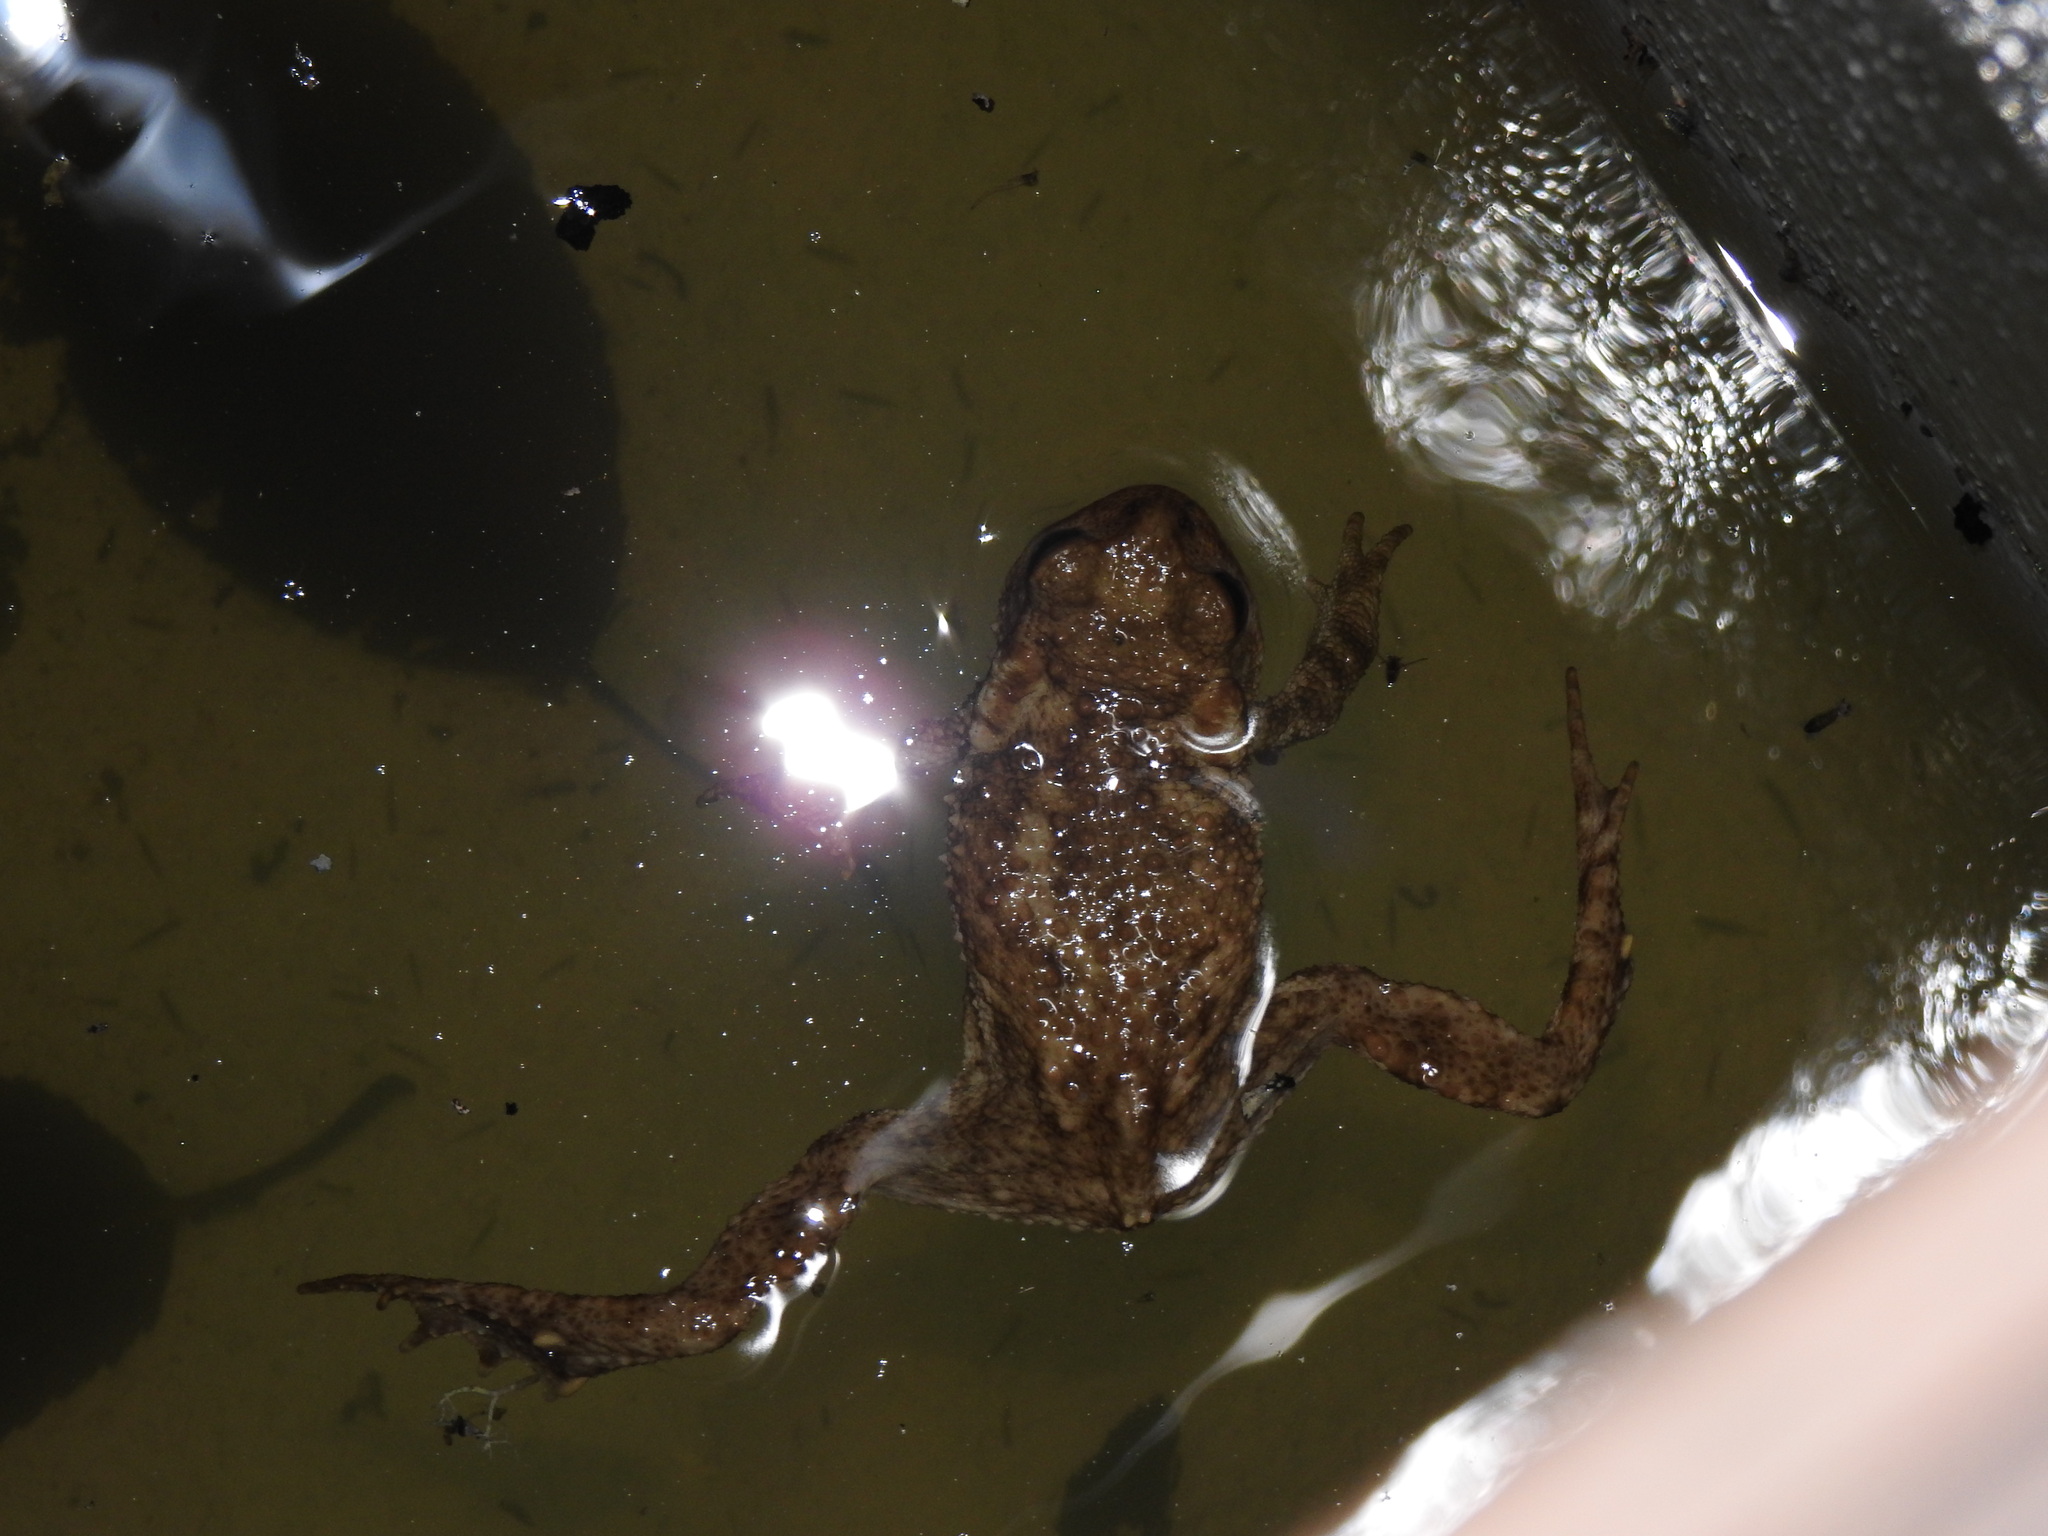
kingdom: Animalia
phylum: Chordata
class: Amphibia
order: Anura
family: Bufonidae
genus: Bufo
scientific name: Bufo spinosus
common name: Western common toad
